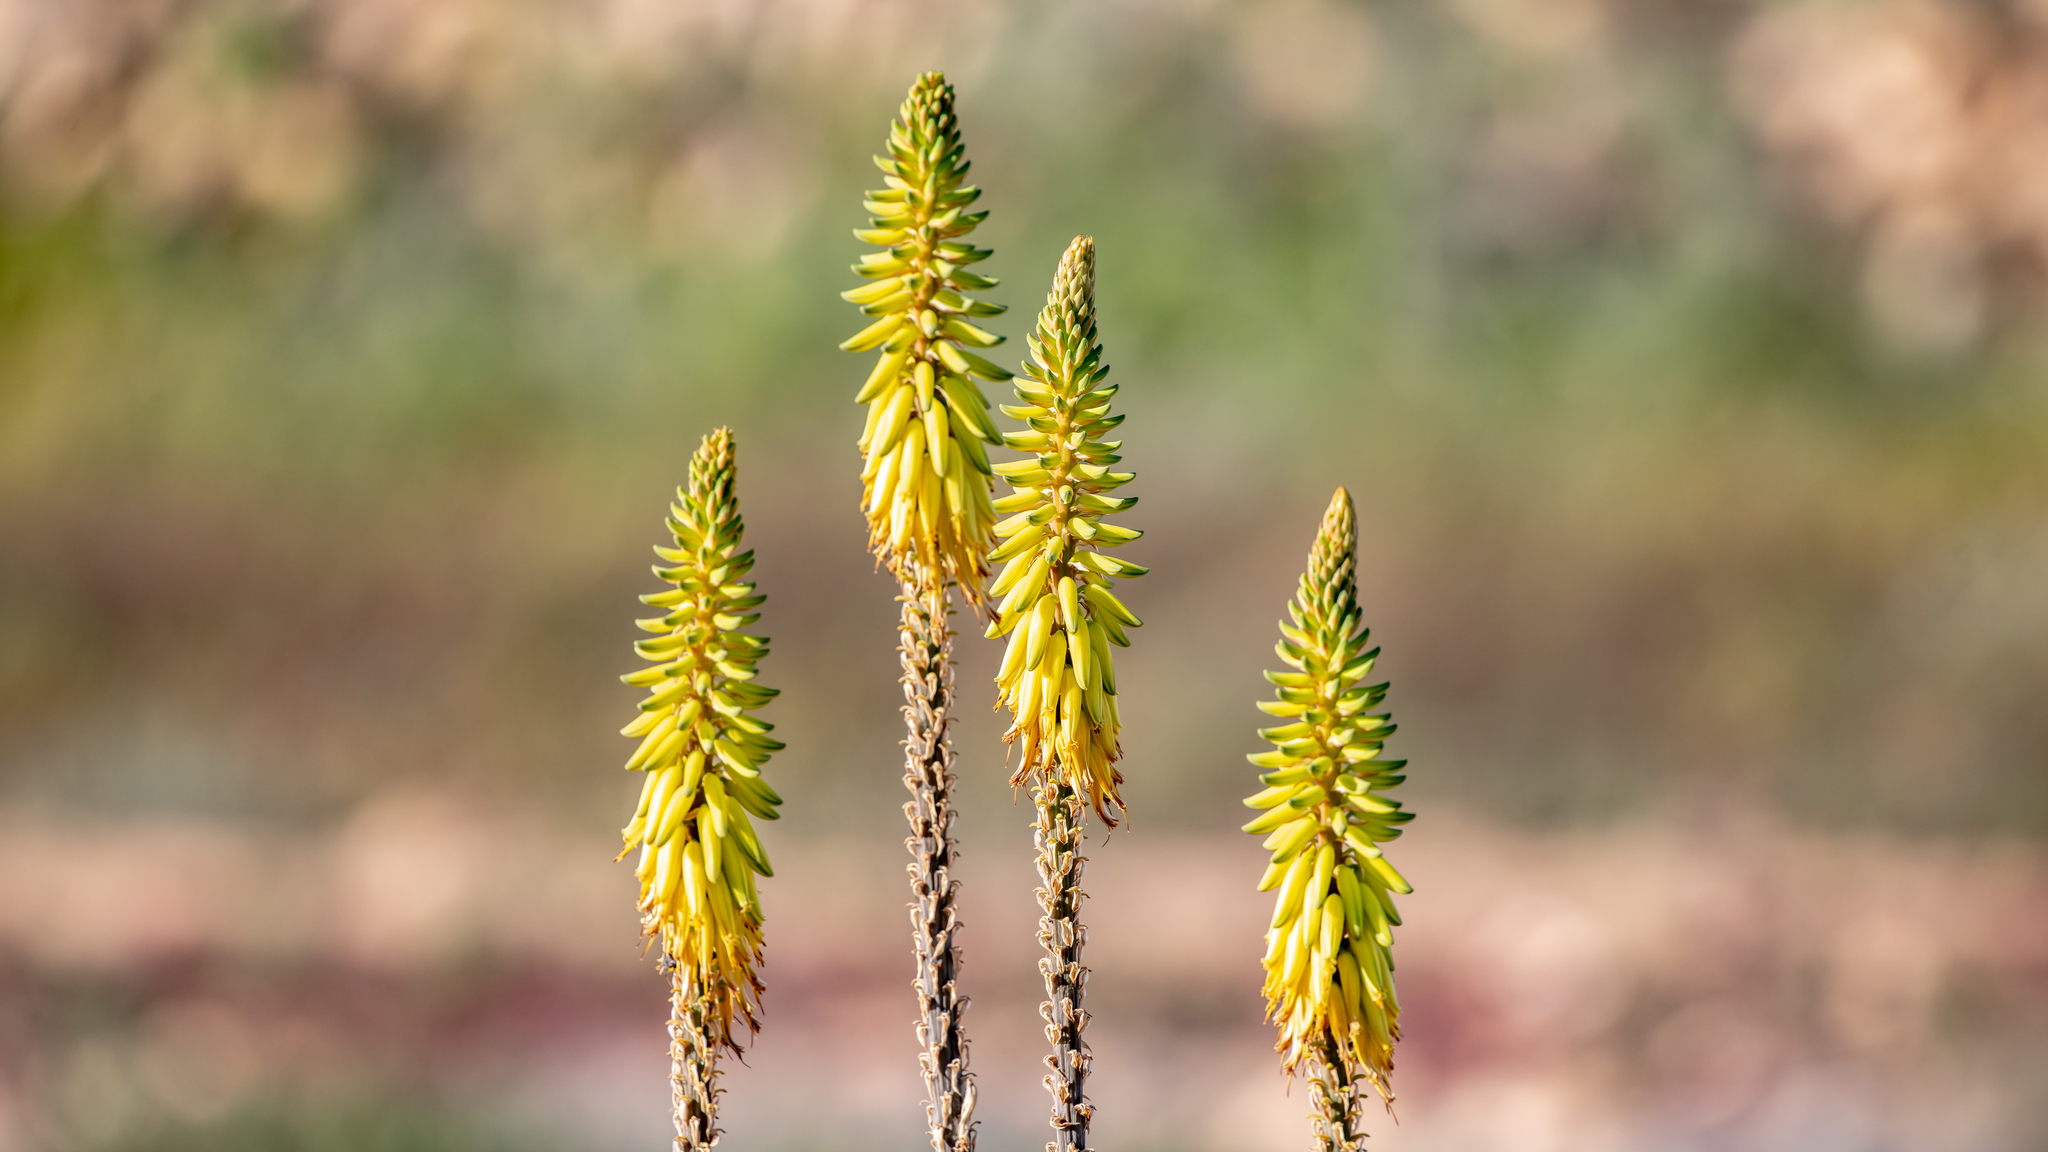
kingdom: Plantae
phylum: Tracheophyta
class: Liliopsida
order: Asparagales
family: Asphodelaceae
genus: Aloe
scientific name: Aloe vera
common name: Barbados aloe
